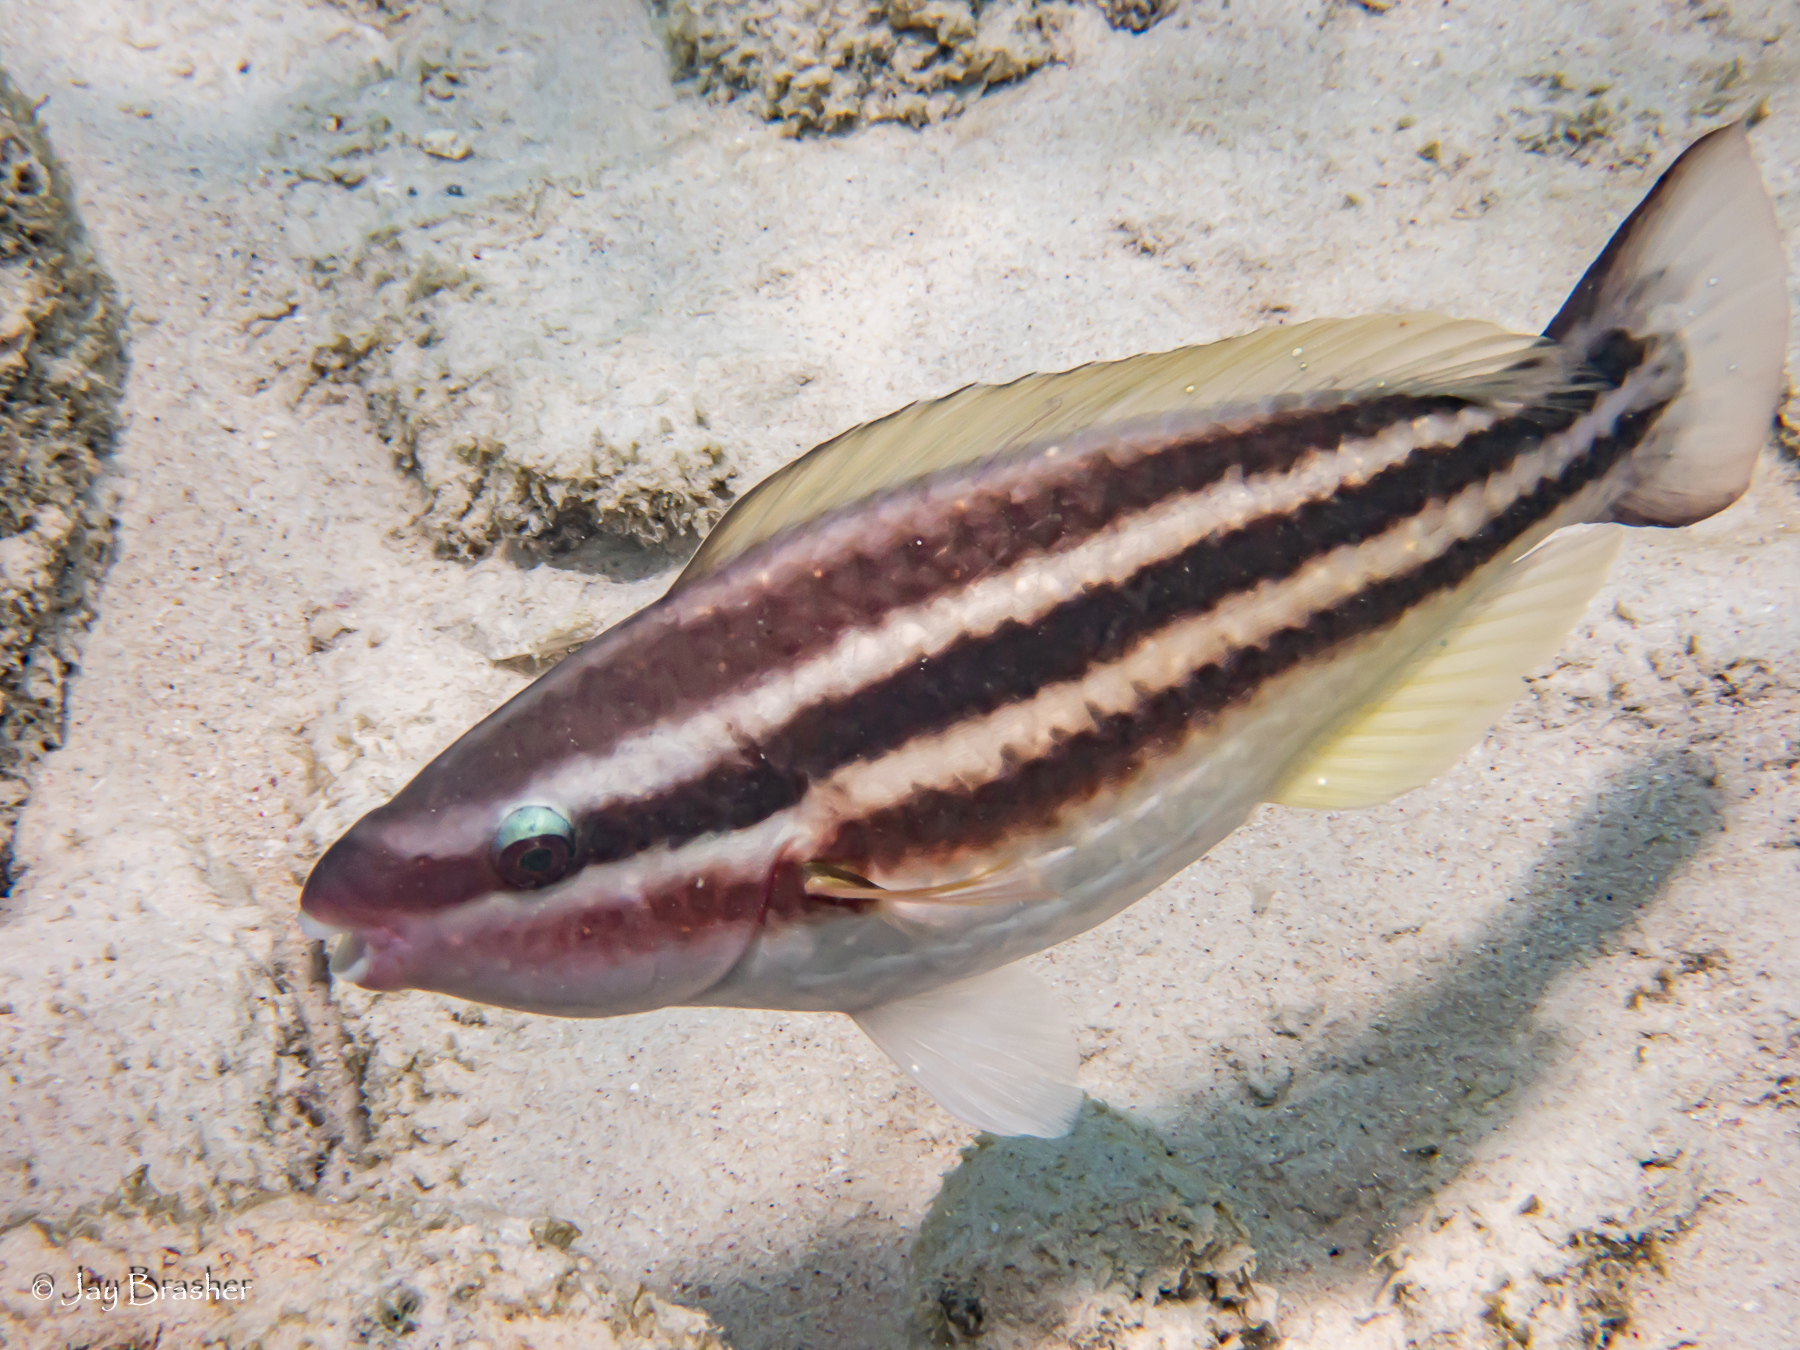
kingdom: Animalia
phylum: Chordata
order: Perciformes
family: Scaridae
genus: Scarus
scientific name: Scarus taeniopterus
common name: Princess parrotfish
